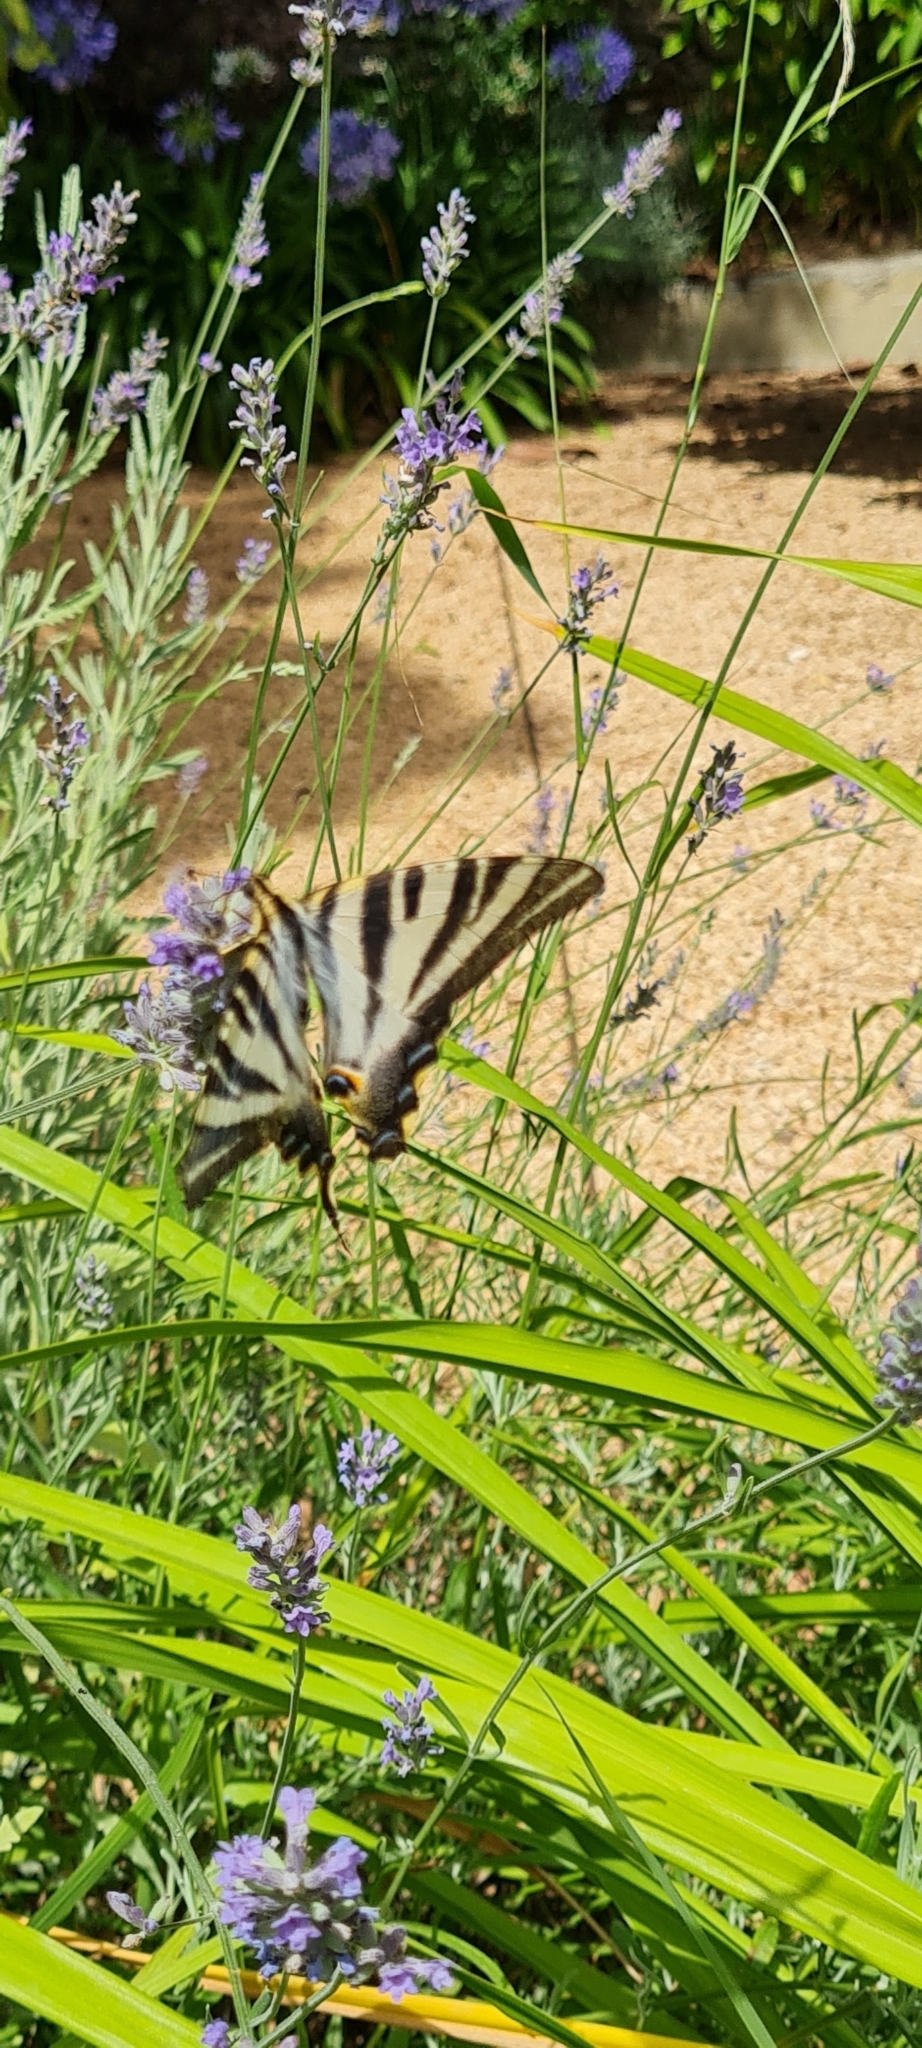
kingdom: Animalia
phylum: Arthropoda
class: Insecta
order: Lepidoptera
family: Papilionidae
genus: Iphiclides
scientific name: Iphiclides feisthamelii
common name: Iberian scarce swallowtail
